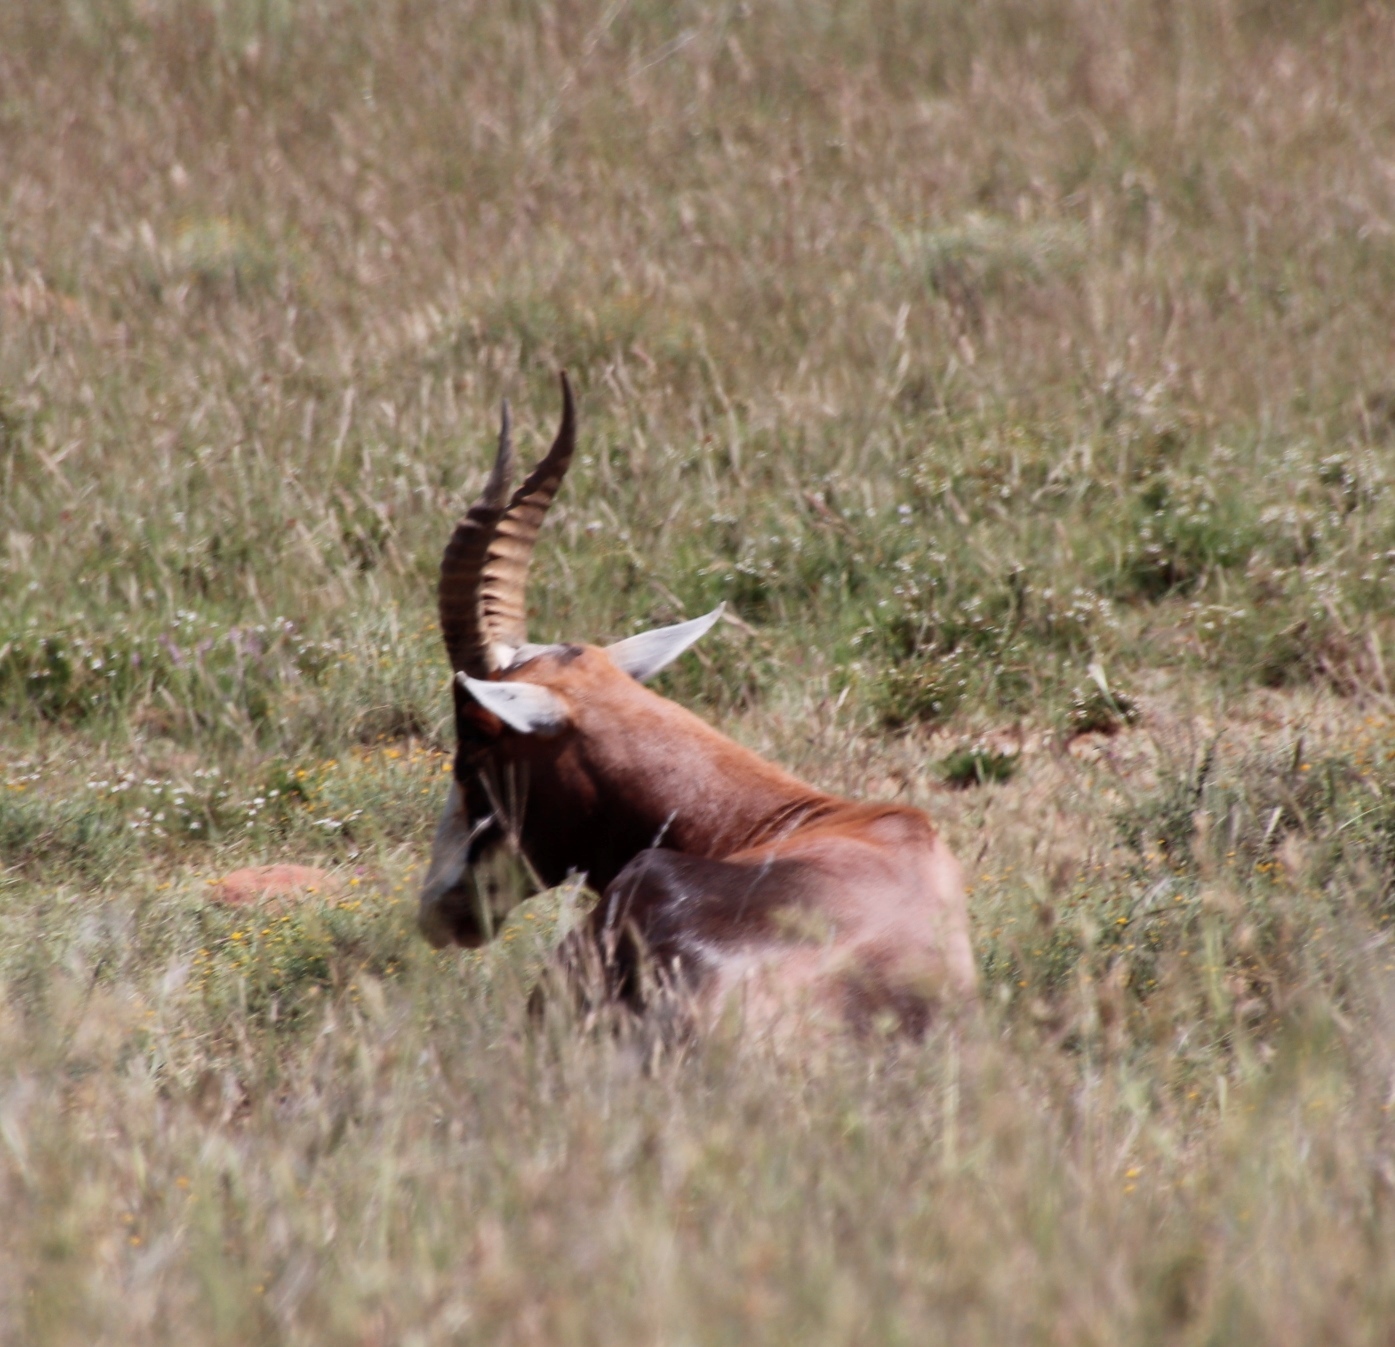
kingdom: Animalia
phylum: Chordata
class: Mammalia
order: Artiodactyla
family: Bovidae
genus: Damaliscus
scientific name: Damaliscus pygargus
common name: Bontebok
